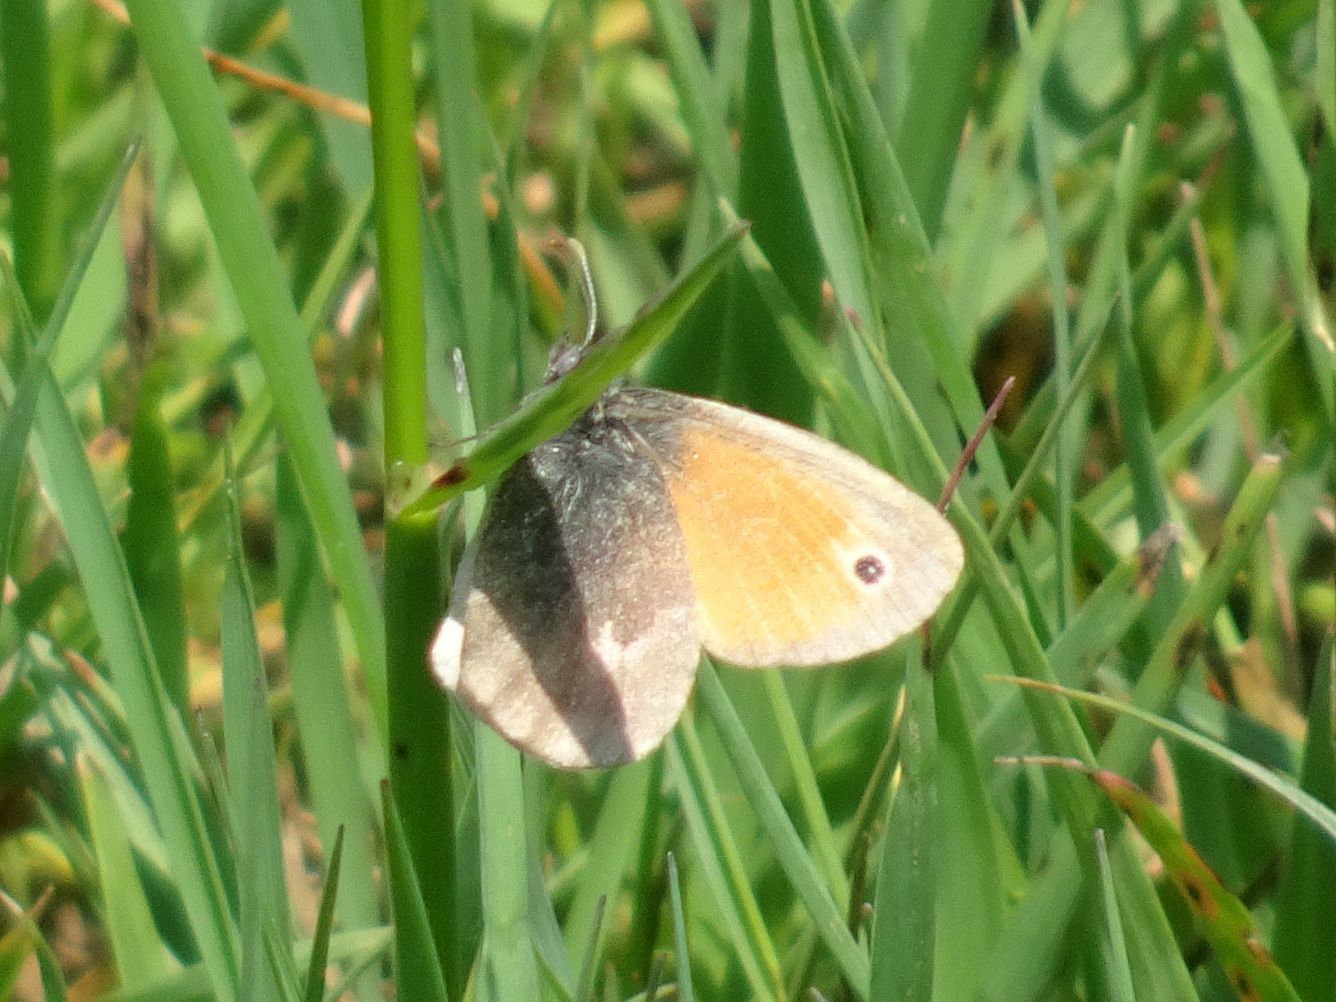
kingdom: Animalia
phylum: Arthropoda
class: Insecta
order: Lepidoptera
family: Nymphalidae
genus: Coenonympha
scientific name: Coenonympha pamphilus
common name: Small heath
